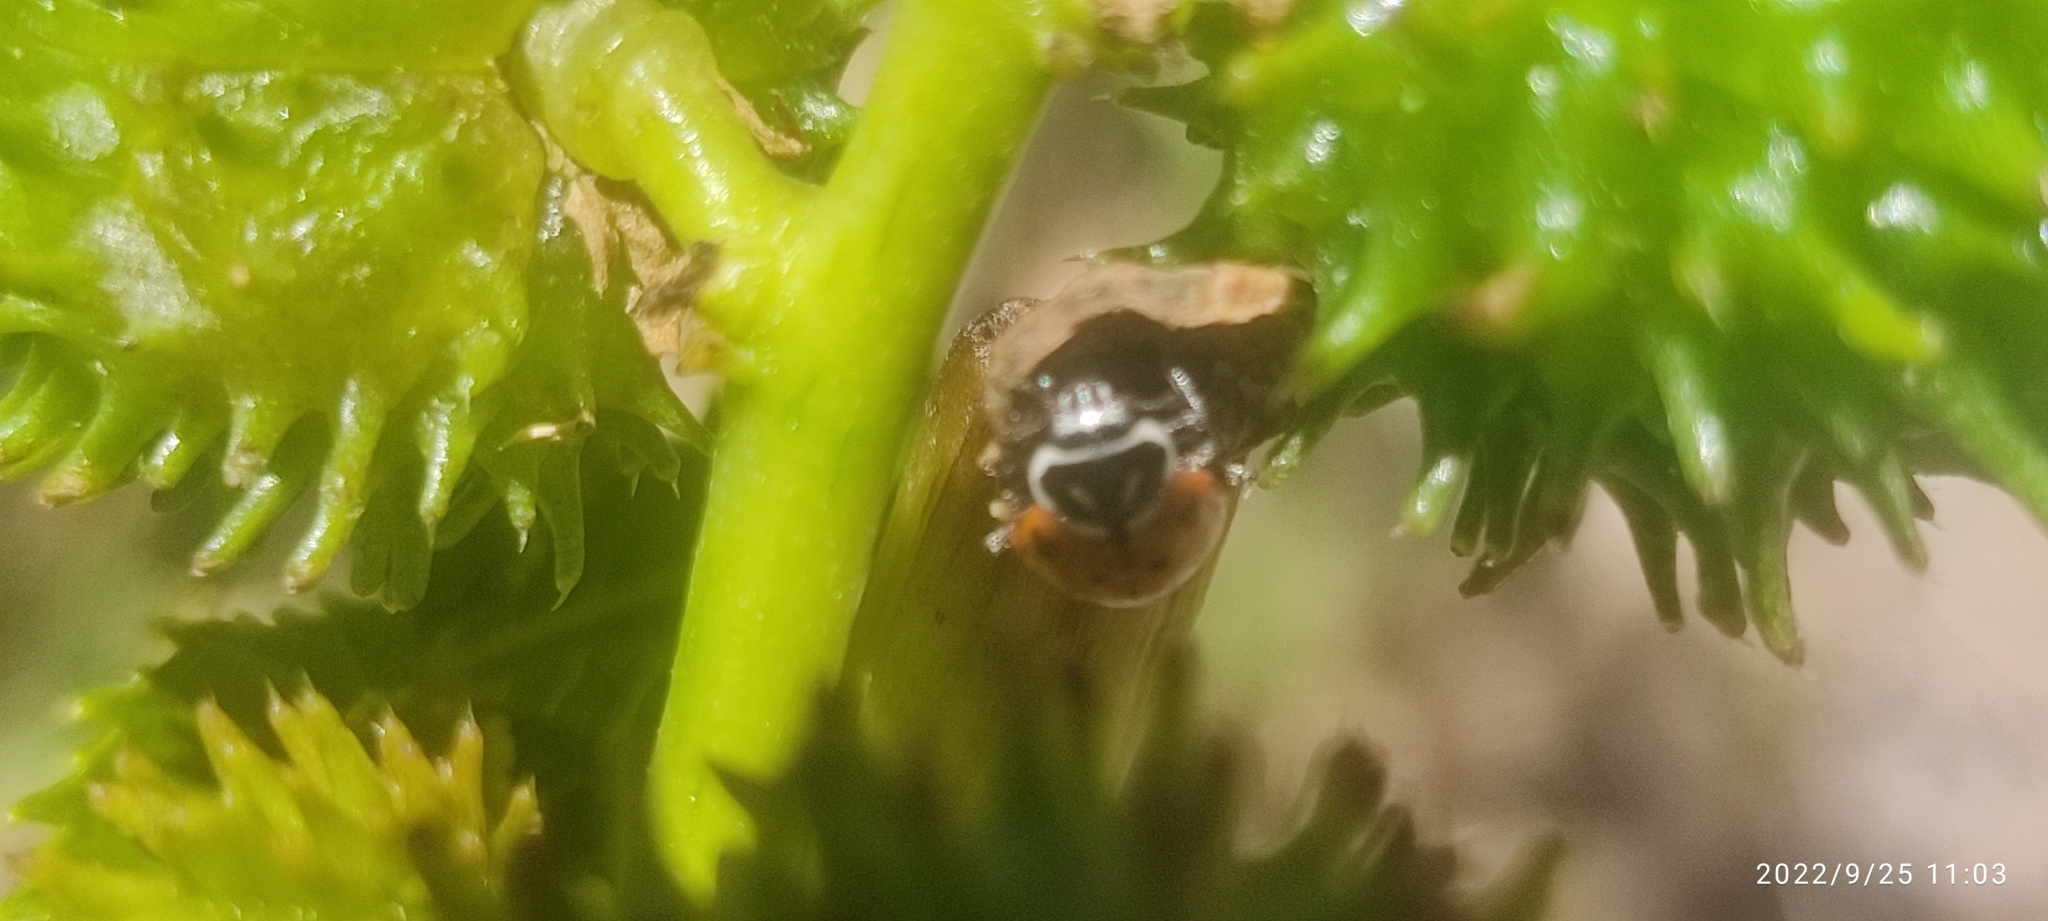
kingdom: Animalia
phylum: Arthropoda
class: Insecta
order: Coleoptera
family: Coccinellidae
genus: Hippodamia
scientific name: Hippodamia convergens
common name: Convergent lady beetle
